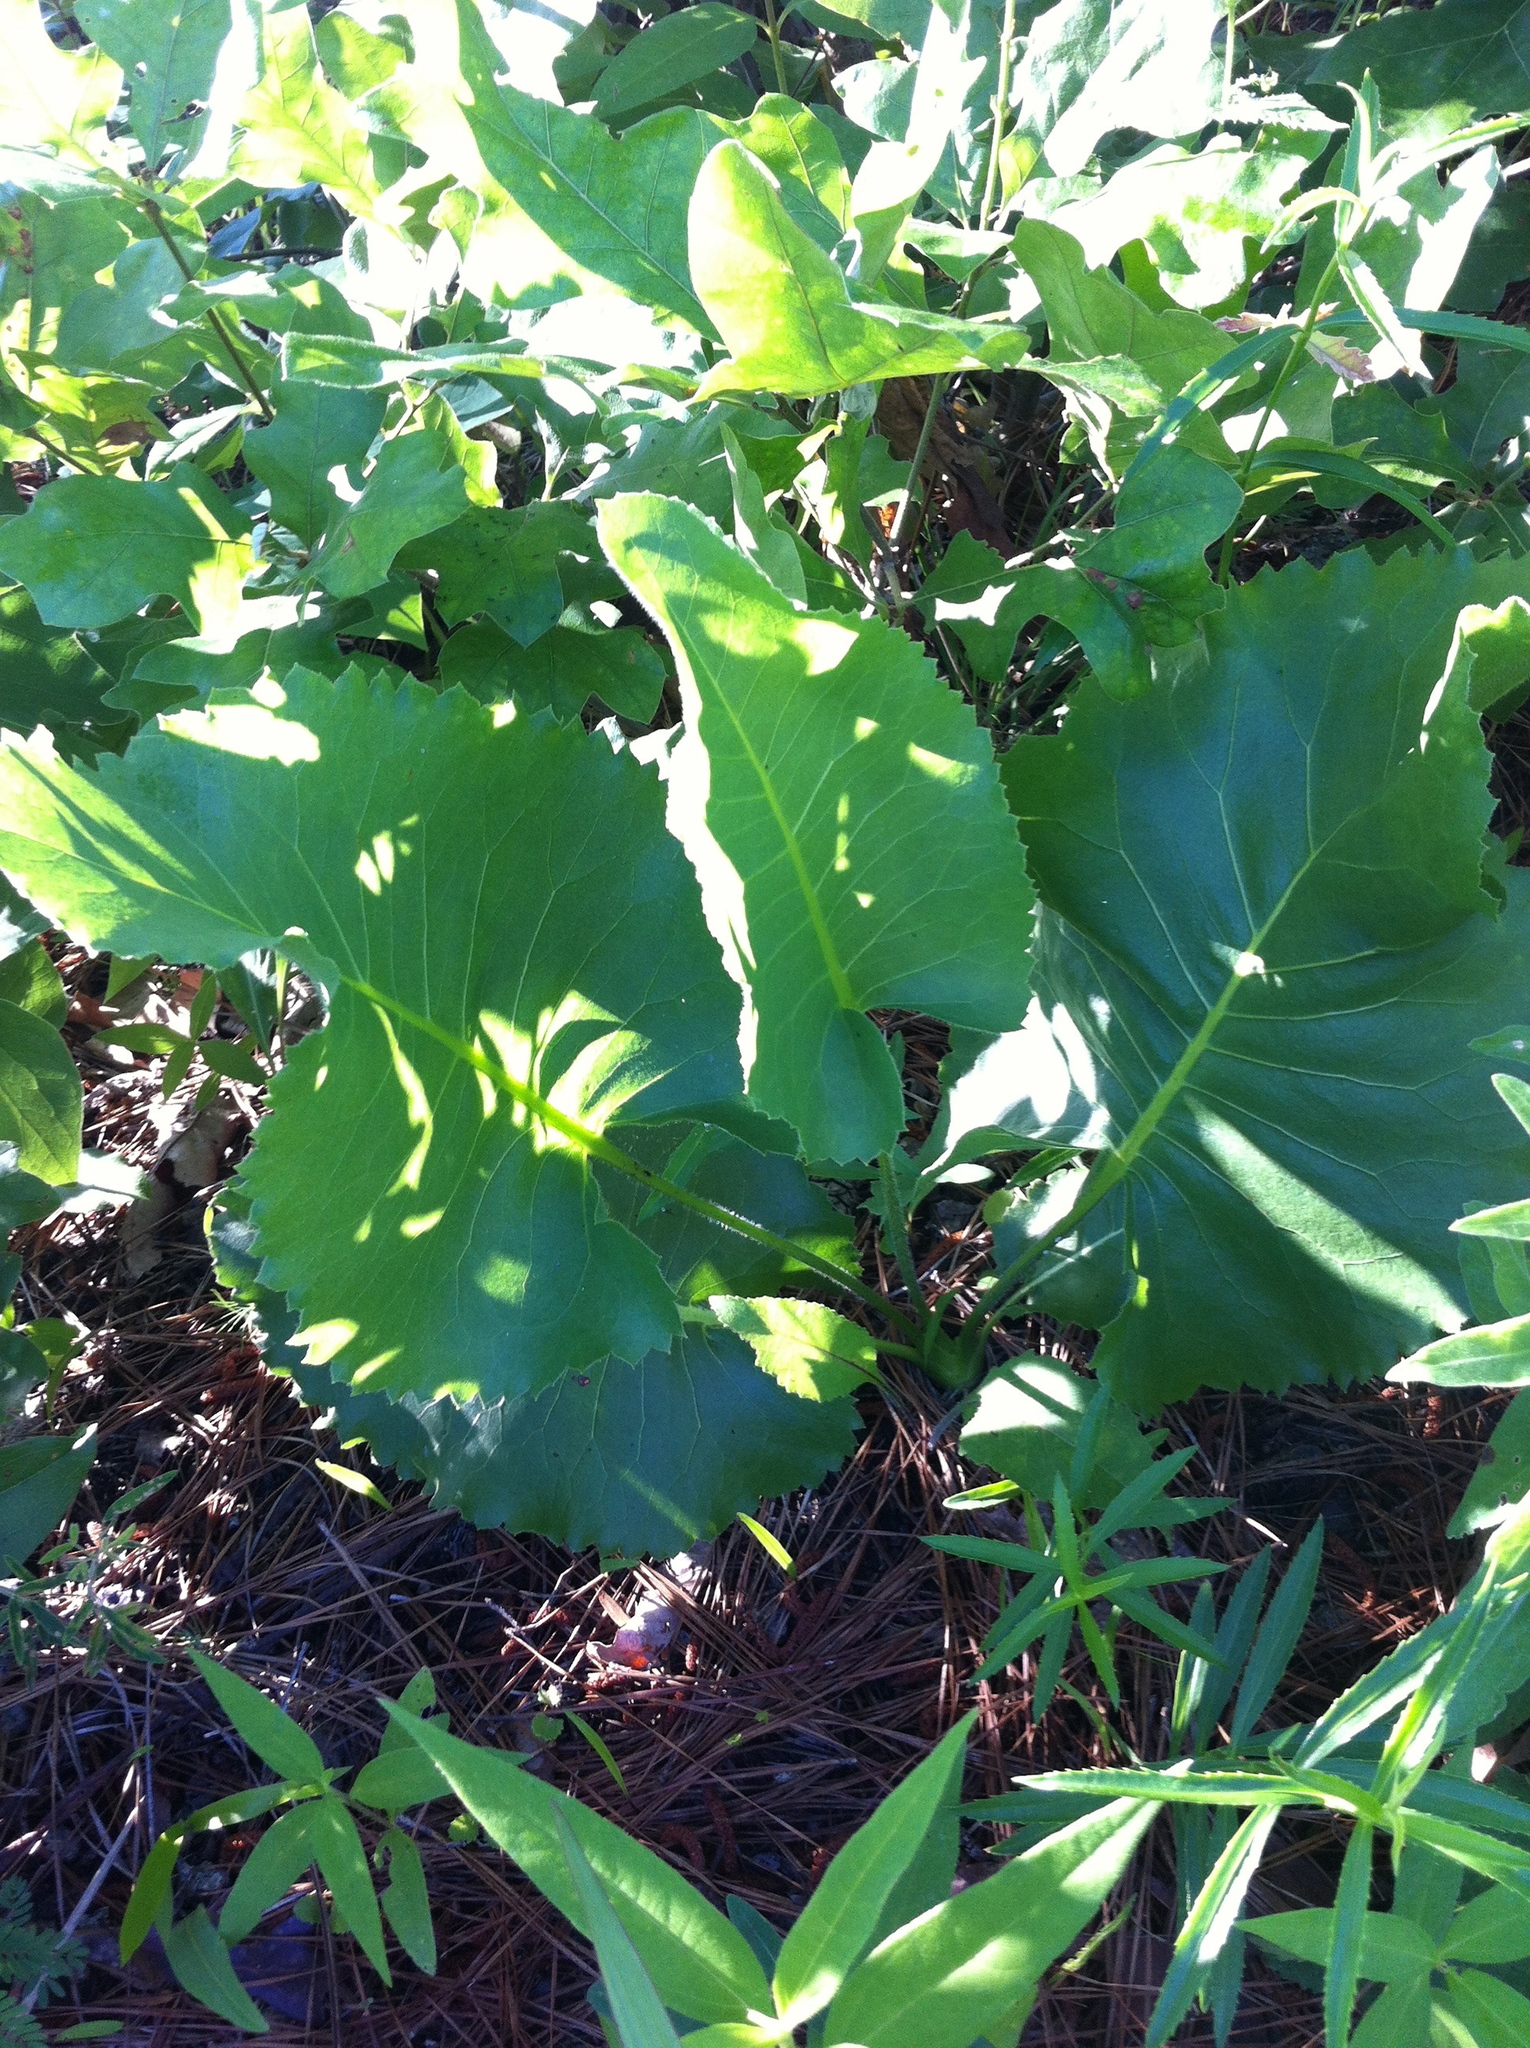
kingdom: Plantae
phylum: Tracheophyta
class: Magnoliopsida
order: Asterales
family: Asteraceae
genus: Silphium
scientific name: Silphium terebinthinaceum
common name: Basal-leaf rosinweed
